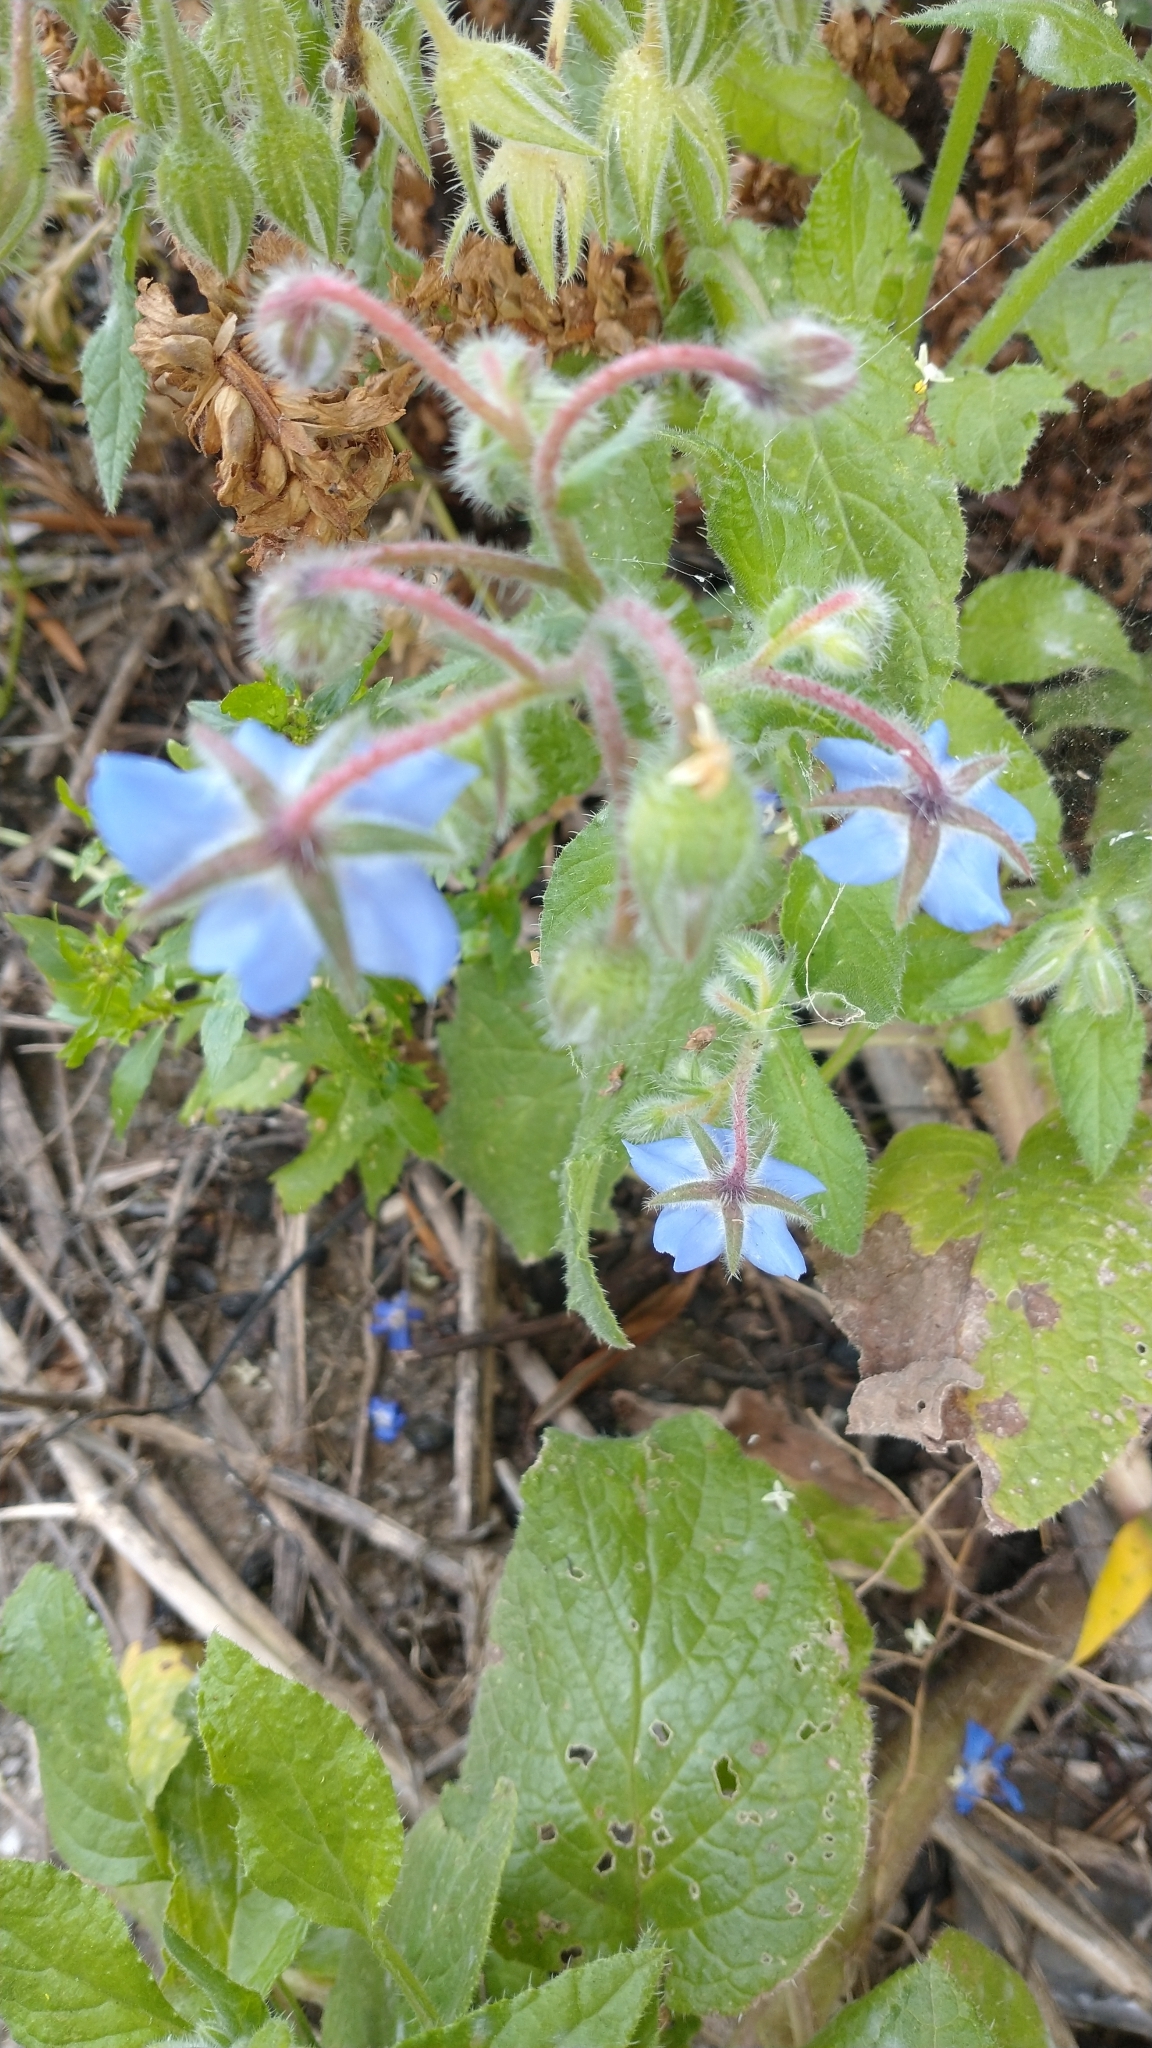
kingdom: Plantae
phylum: Tracheophyta
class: Magnoliopsida
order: Boraginales
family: Boraginaceae
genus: Borago
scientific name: Borago officinalis
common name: Borage
